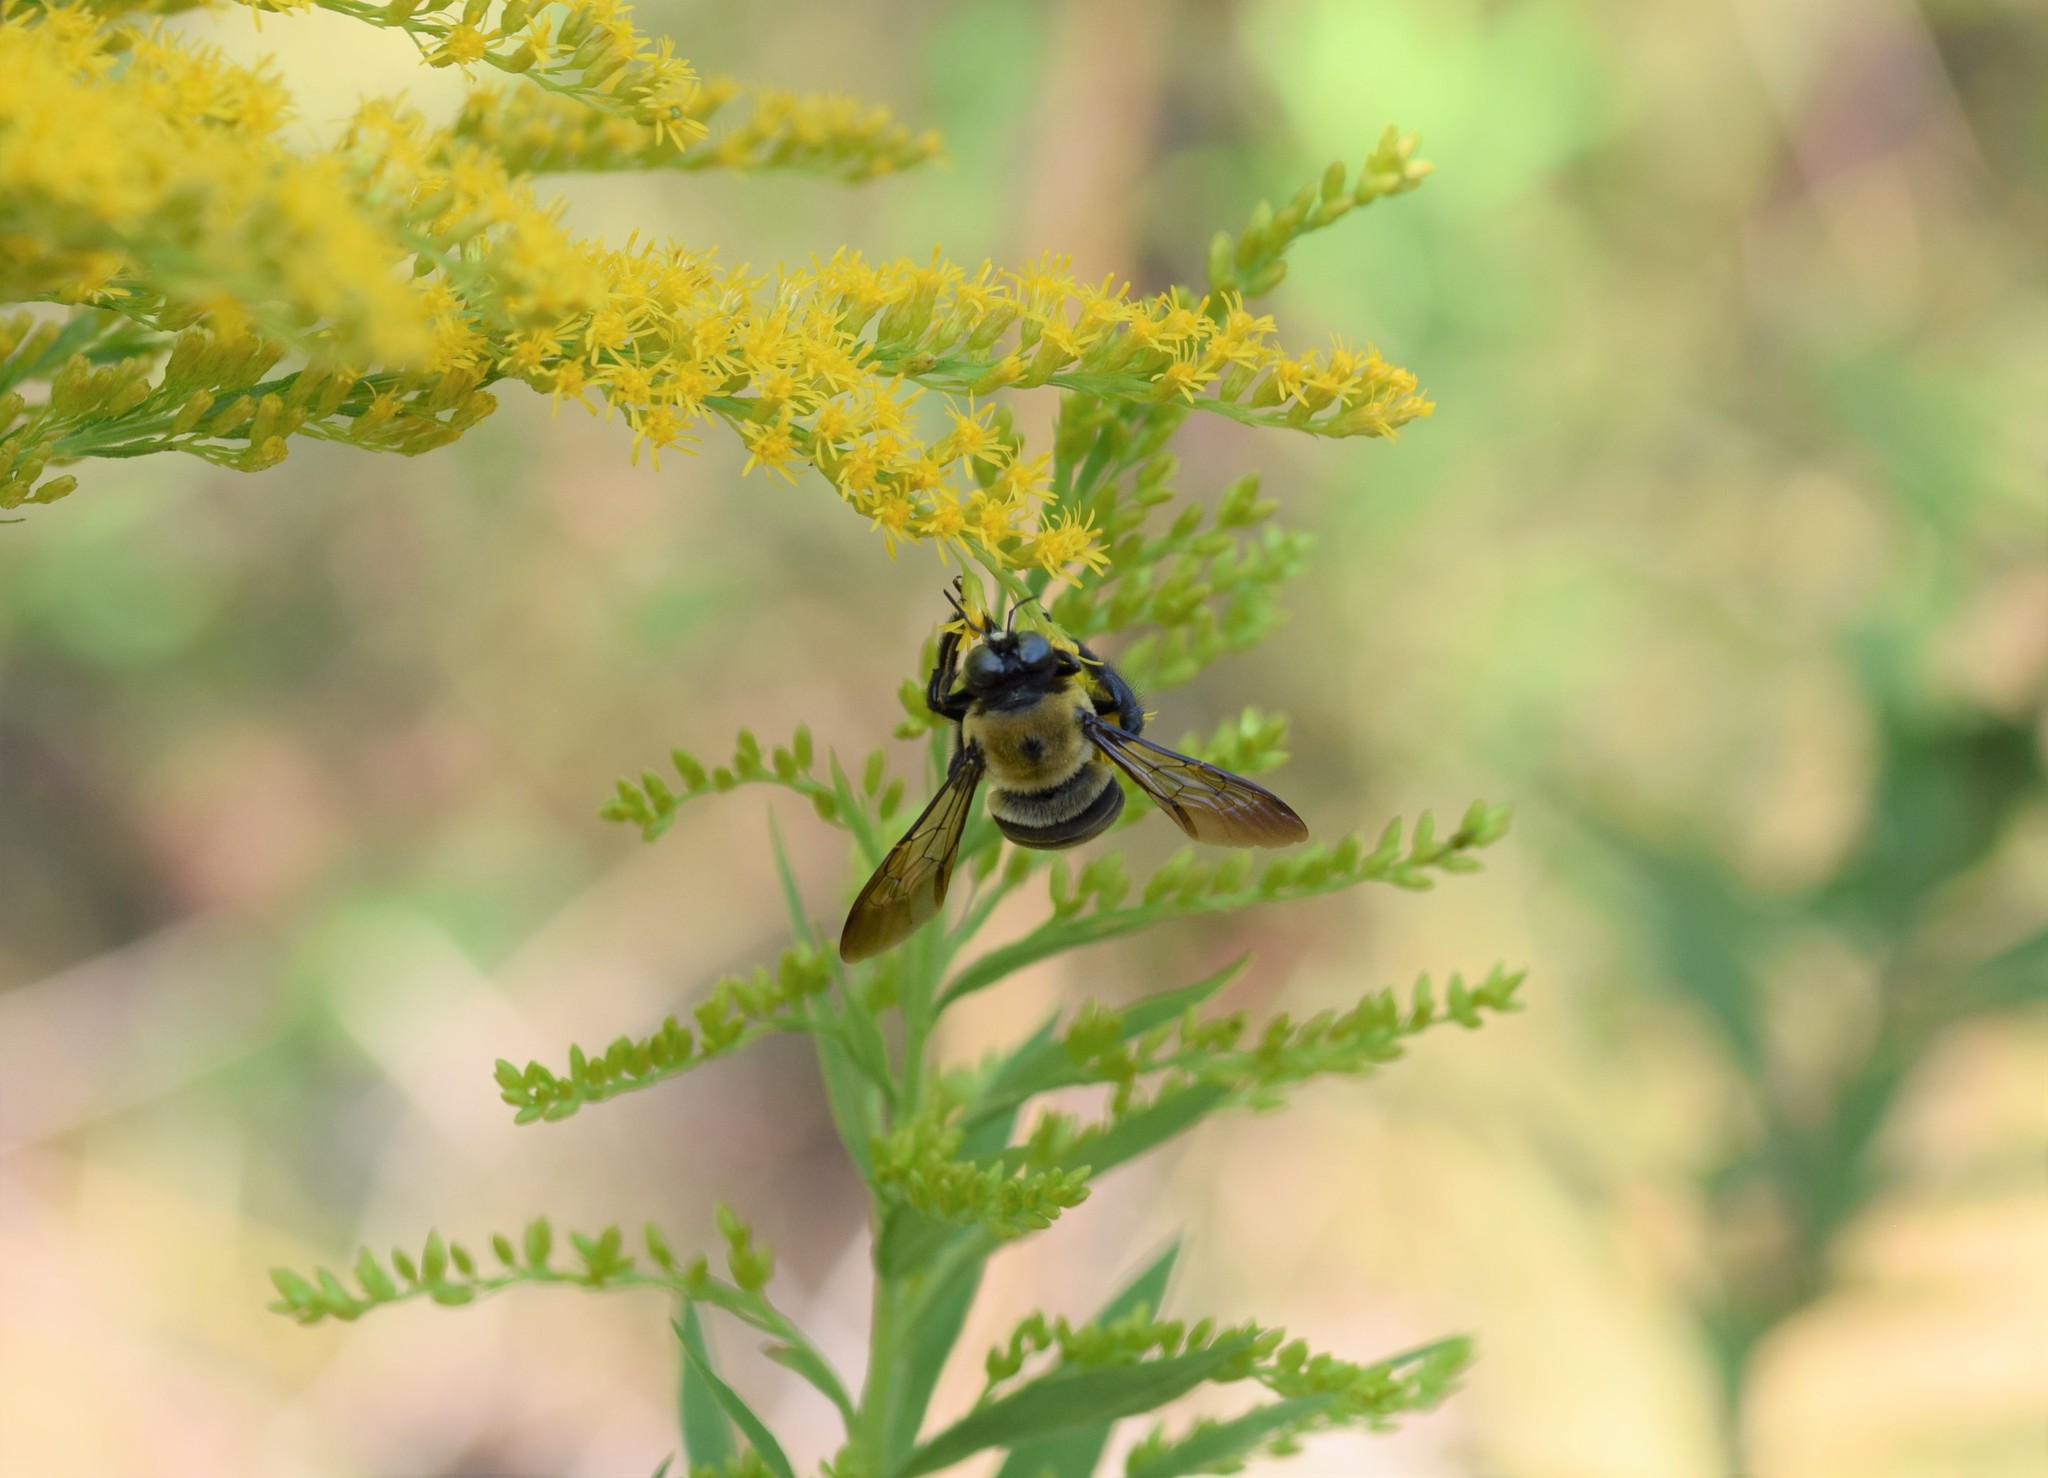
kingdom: Animalia
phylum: Arthropoda
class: Insecta
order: Hymenoptera
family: Apidae
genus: Xylocopa
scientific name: Xylocopa virginica
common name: Carpenter bee
